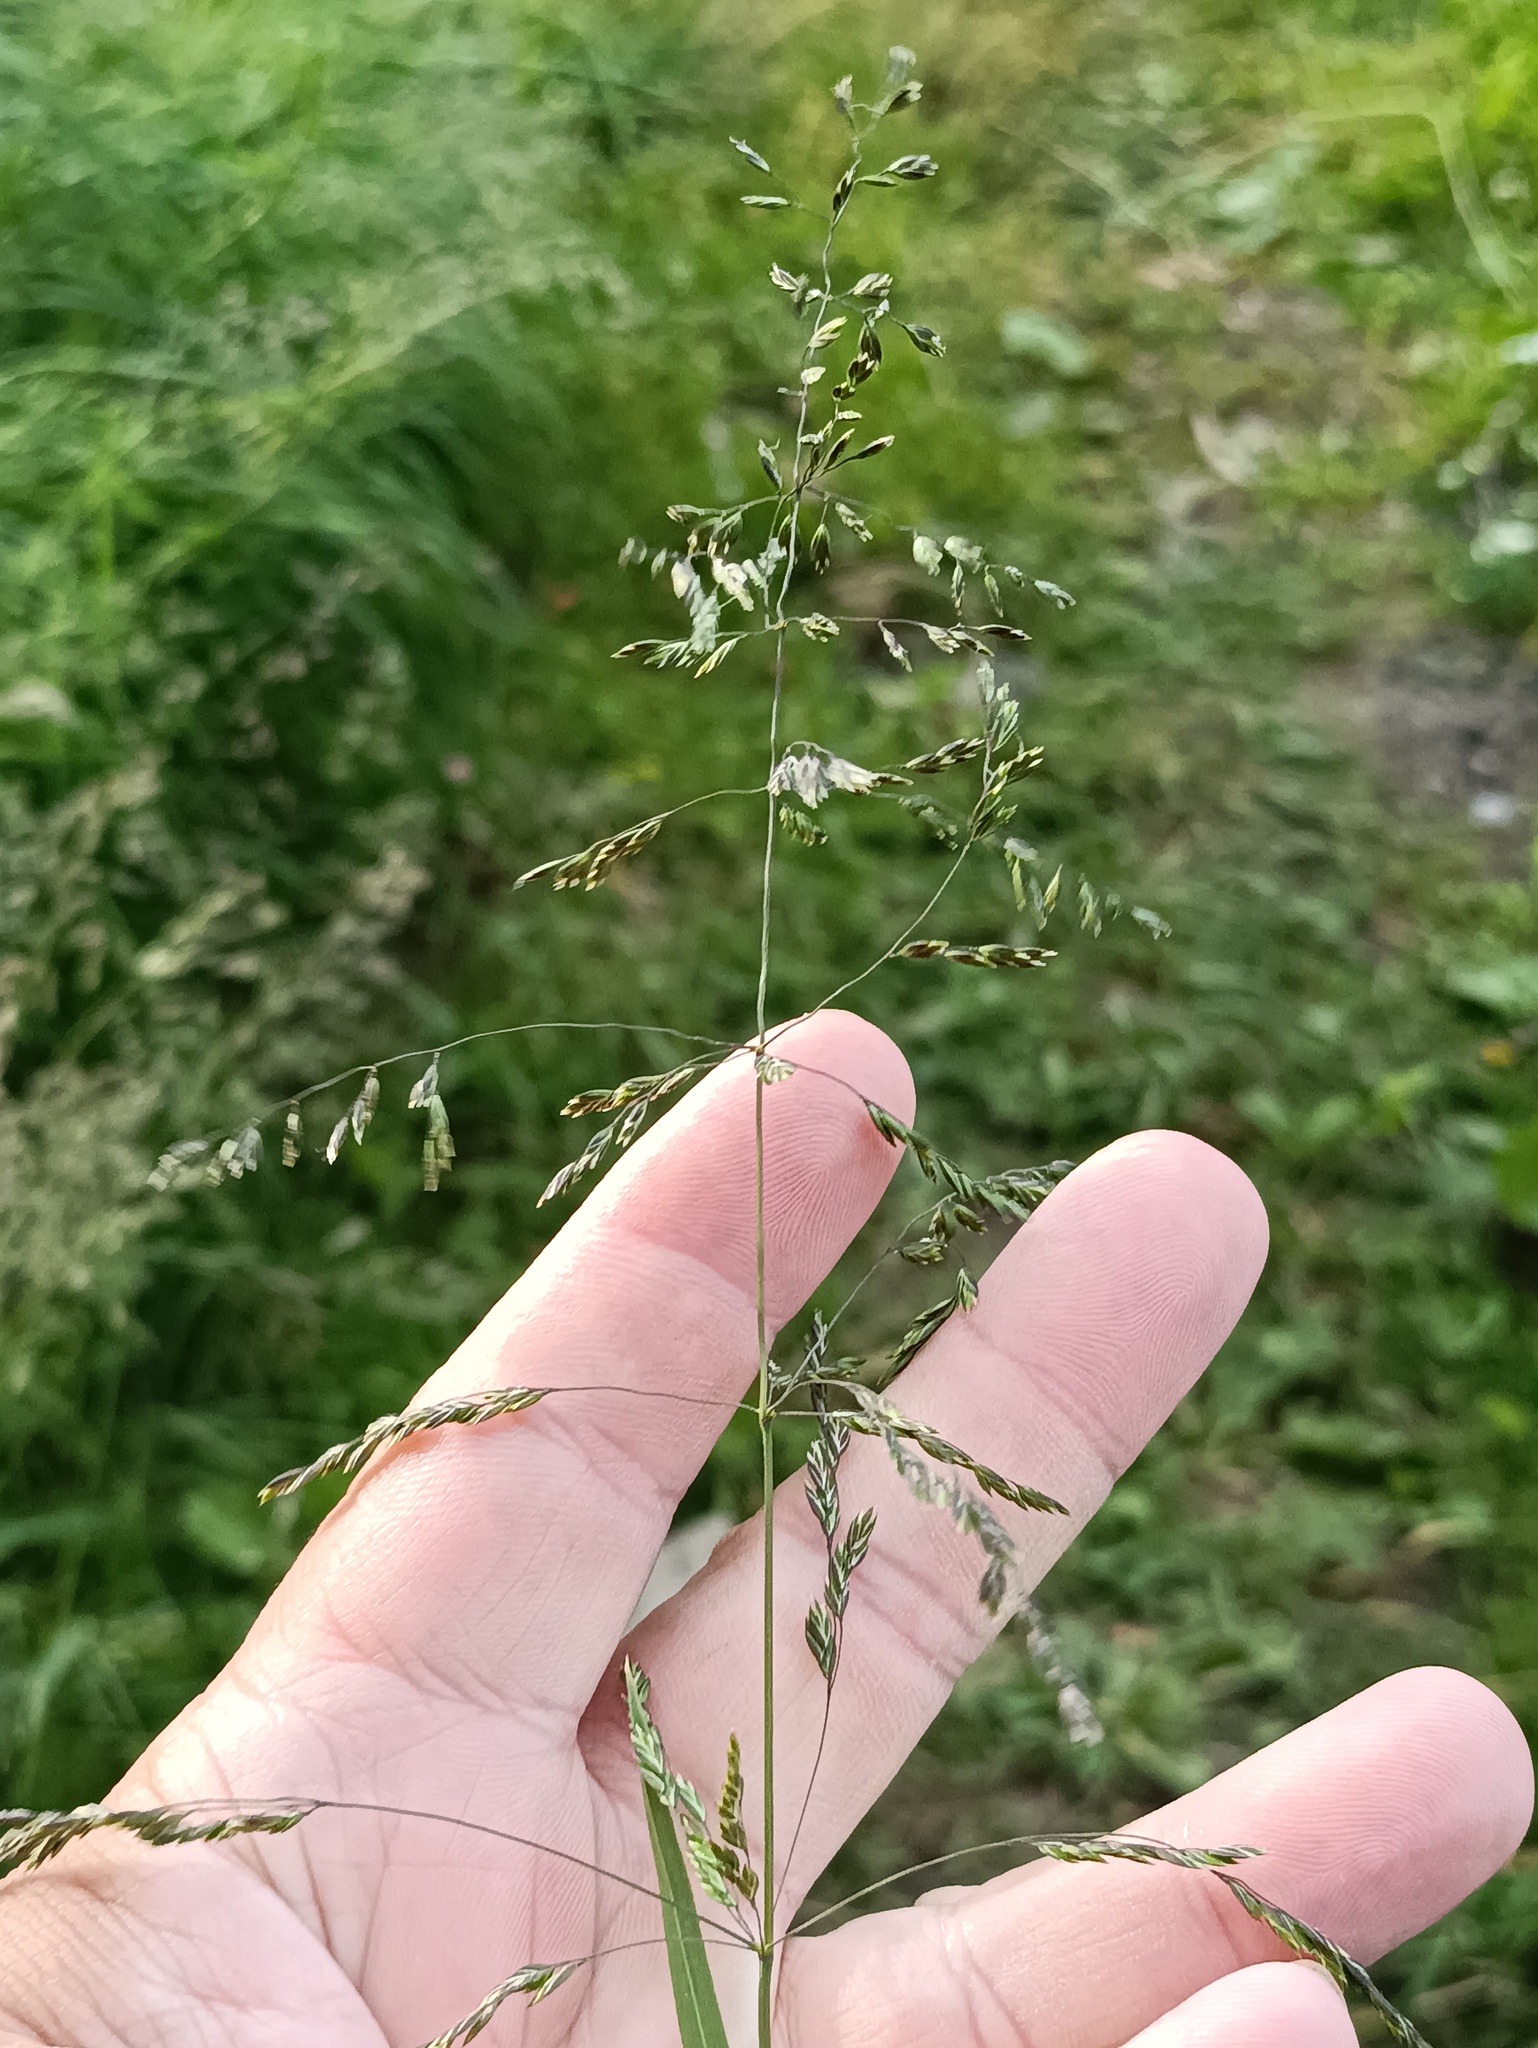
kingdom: Plantae
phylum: Tracheophyta
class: Liliopsida
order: Poales
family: Poaceae
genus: Poa
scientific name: Poa trivialis
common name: Rough bluegrass
